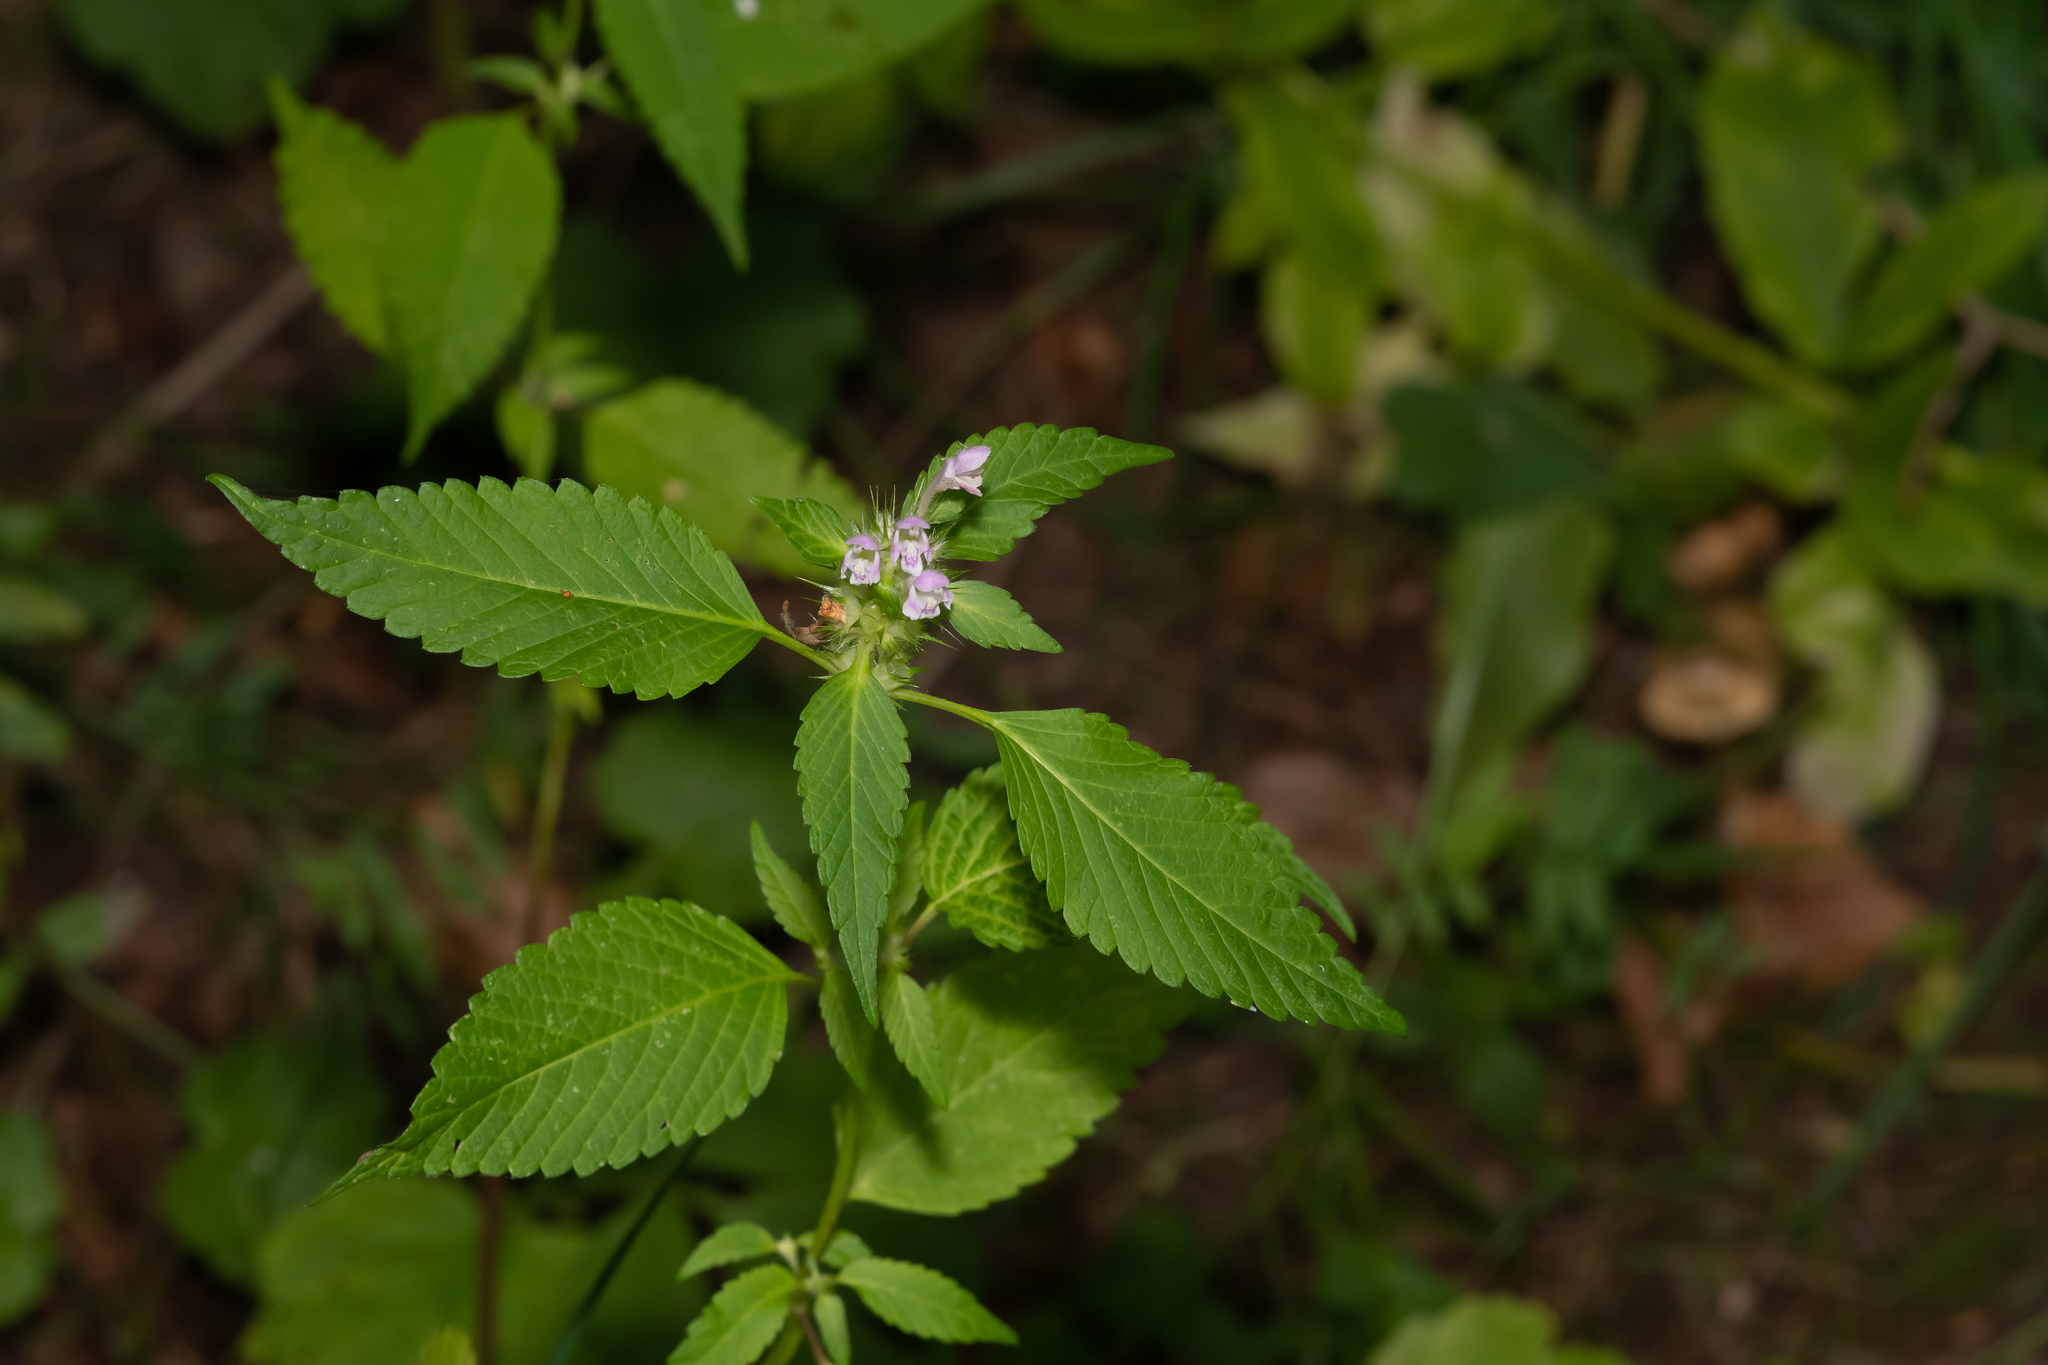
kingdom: Plantae
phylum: Tracheophyta
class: Magnoliopsida
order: Lamiales
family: Lamiaceae
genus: Galeopsis
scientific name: Galeopsis tetrahit
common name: Common hemp-nettle
